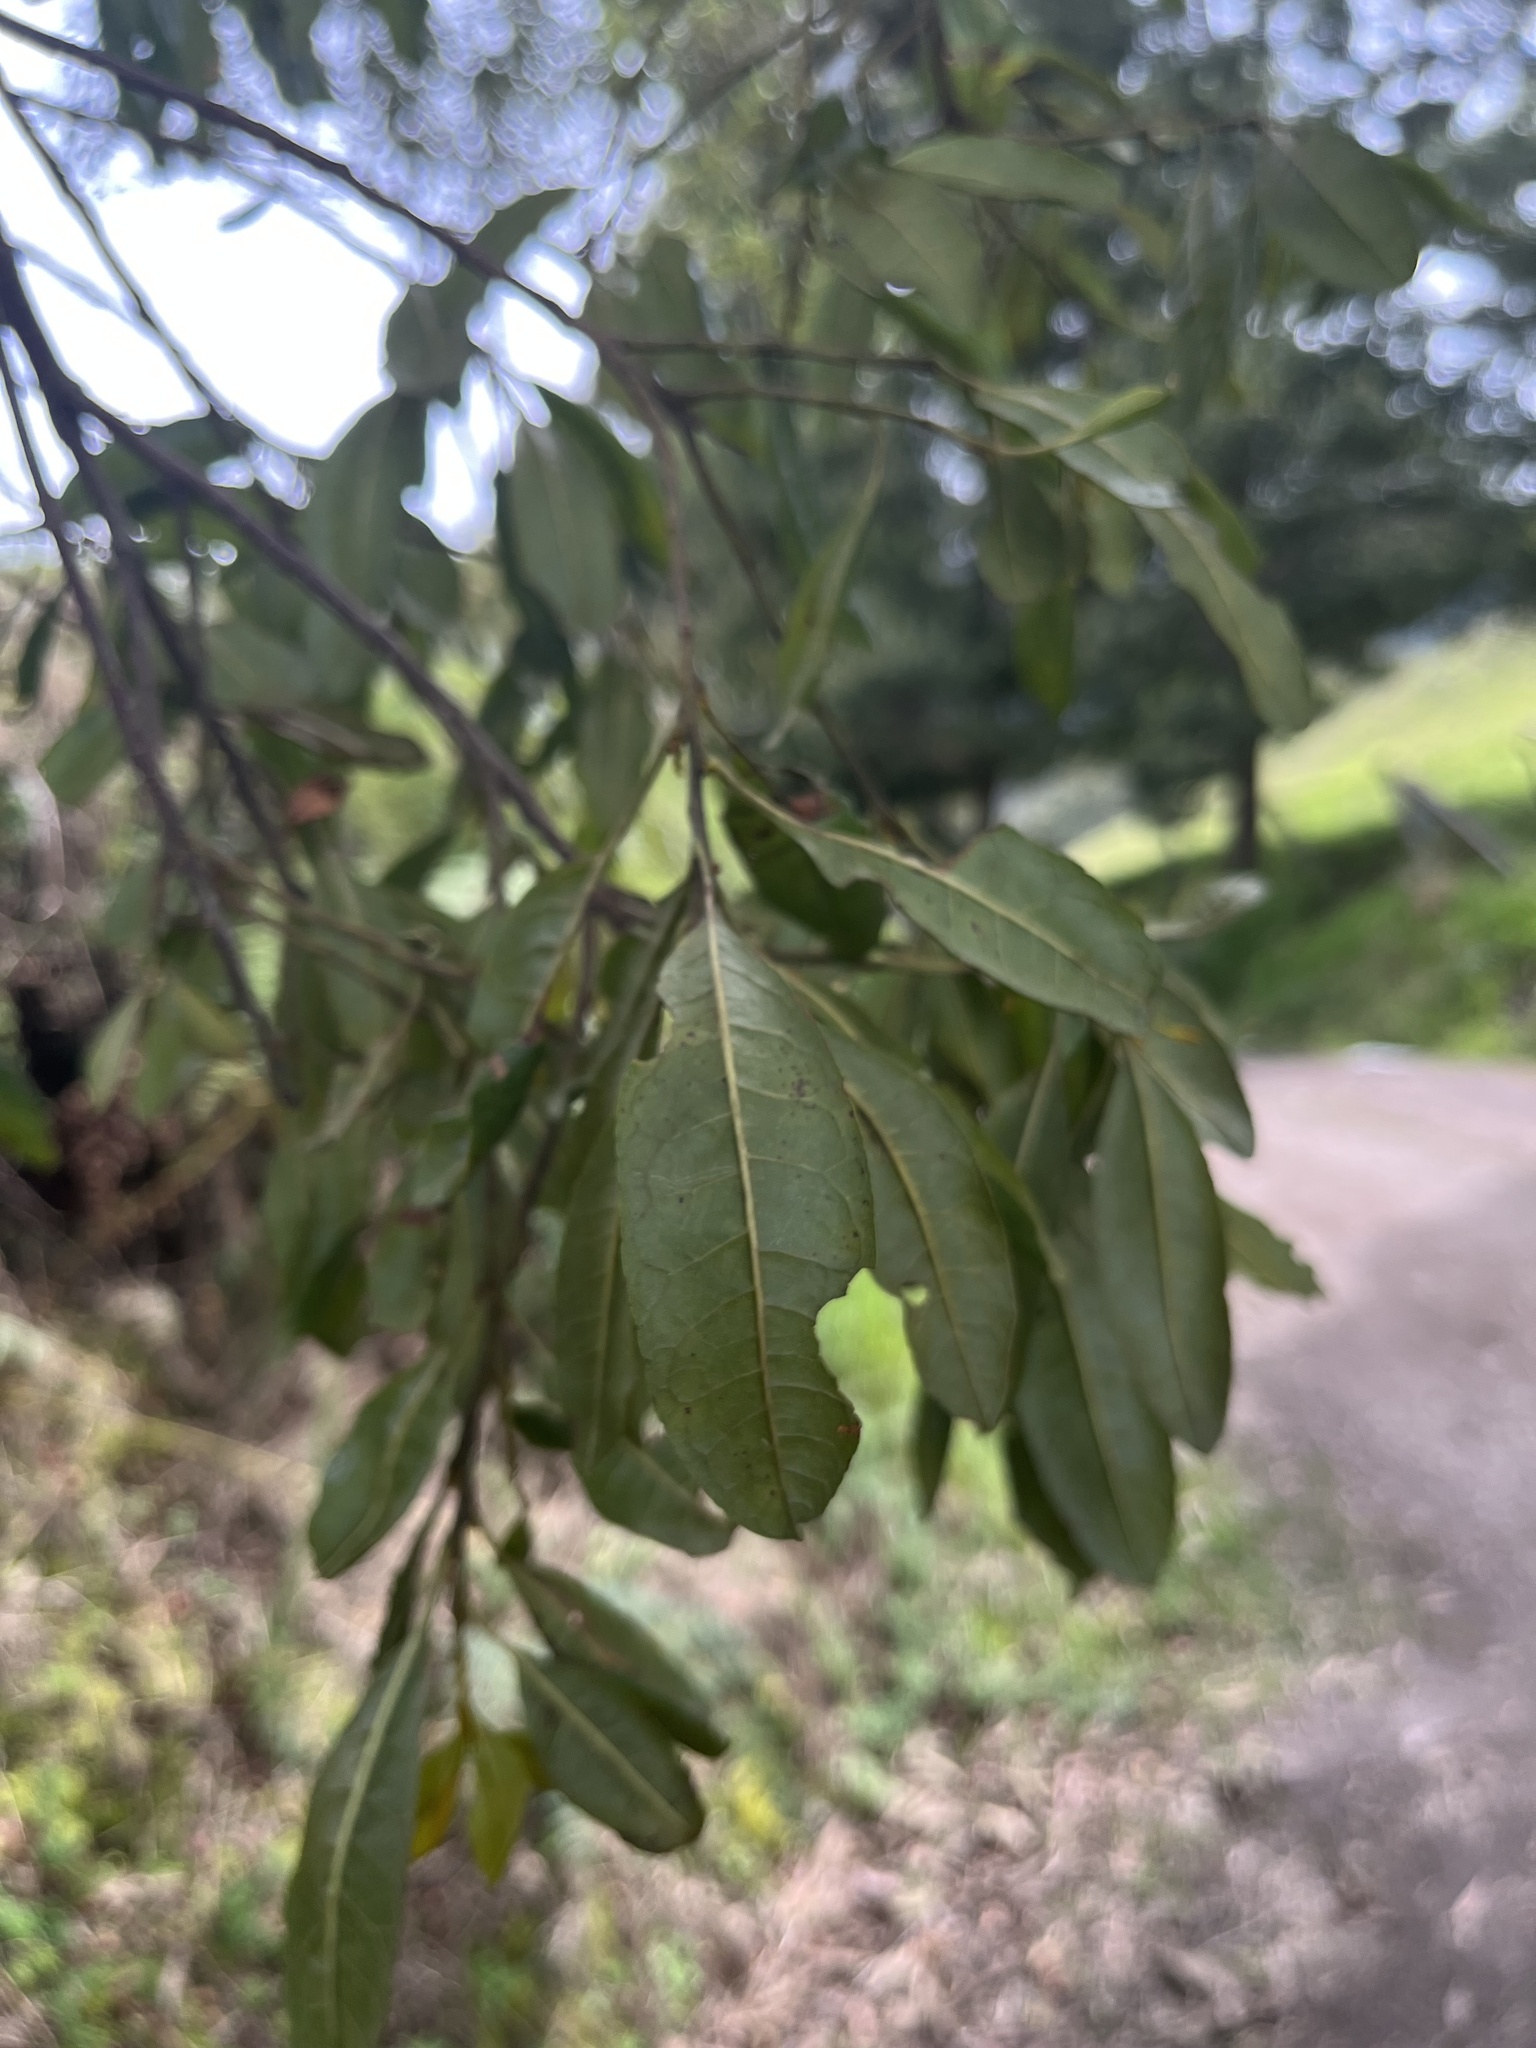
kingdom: Plantae
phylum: Tracheophyta
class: Magnoliopsida
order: Fagales
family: Myricaceae
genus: Morella
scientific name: Morella parvifolia
